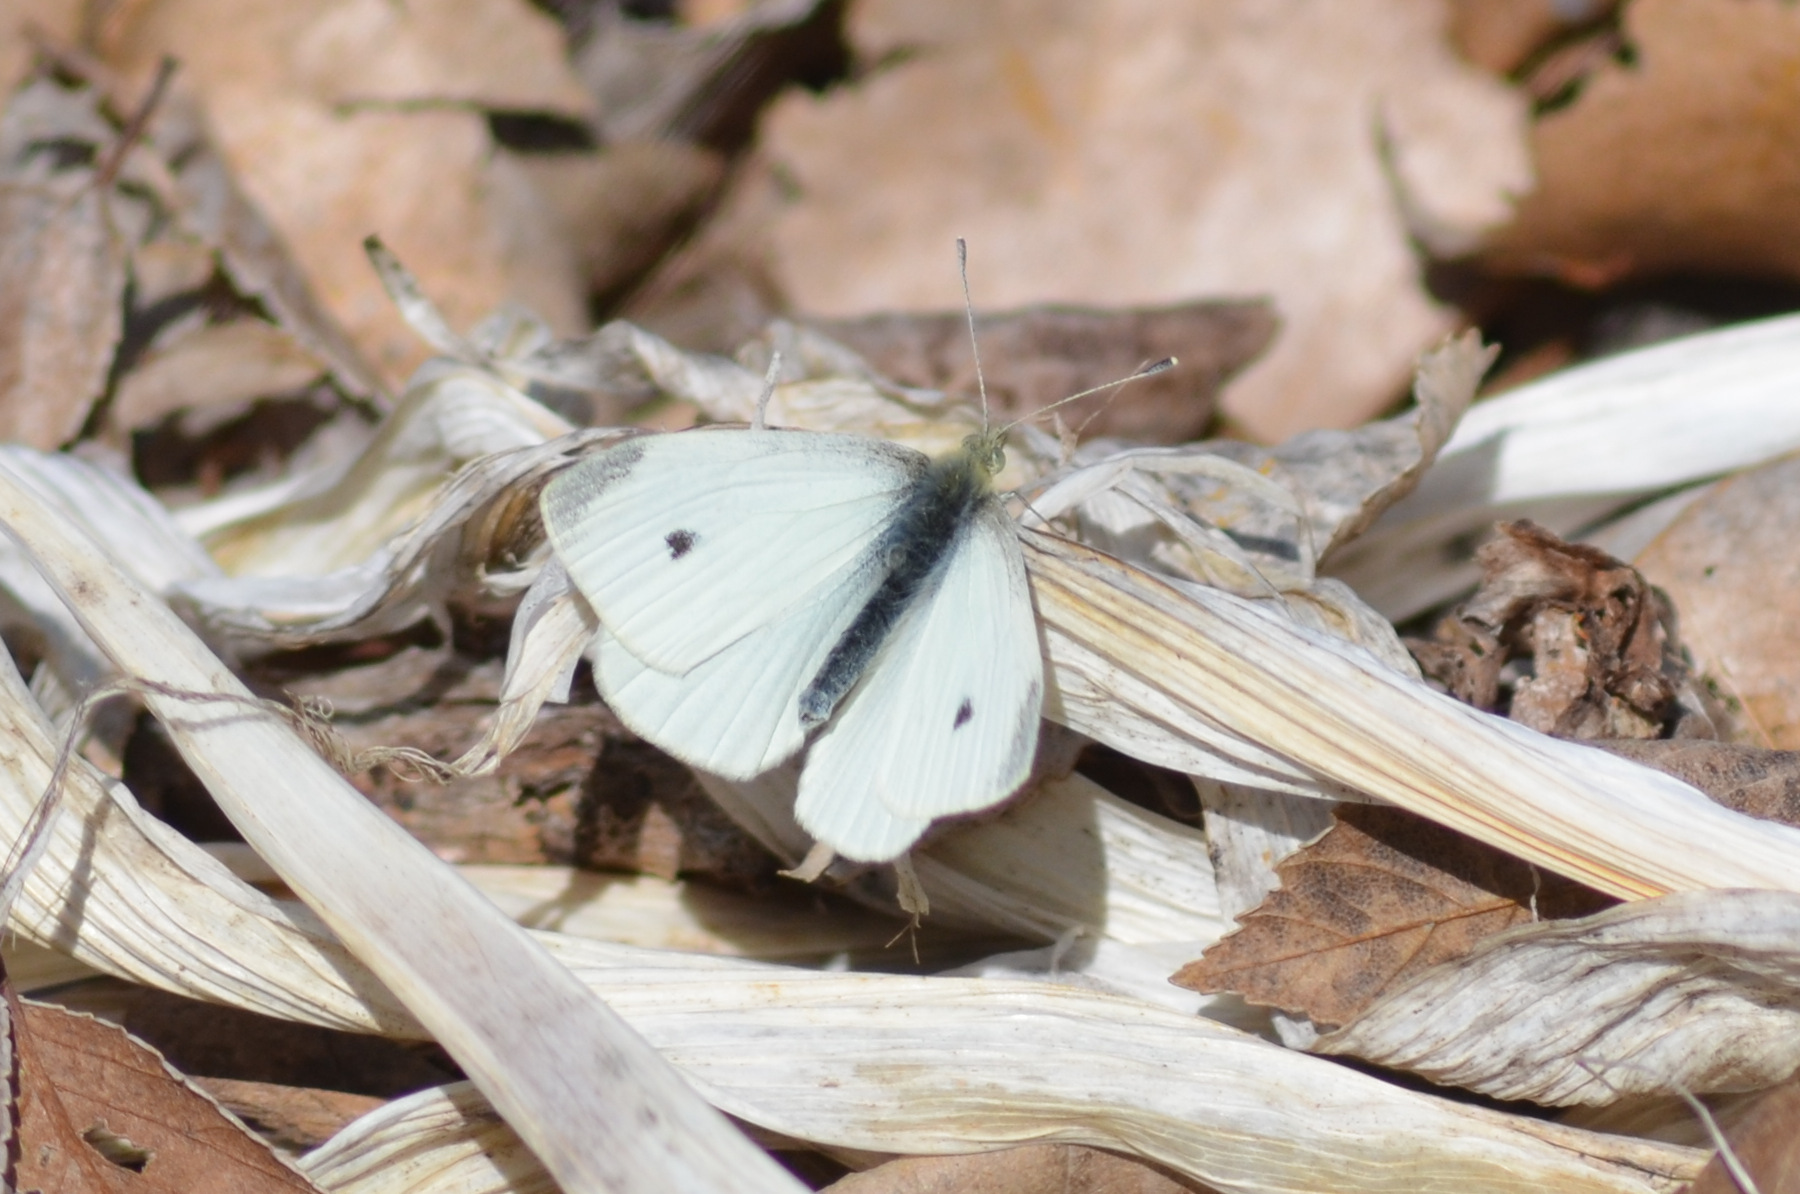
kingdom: Animalia
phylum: Arthropoda
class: Insecta
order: Lepidoptera
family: Pieridae
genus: Pieris
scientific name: Pieris rapae
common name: Small white
